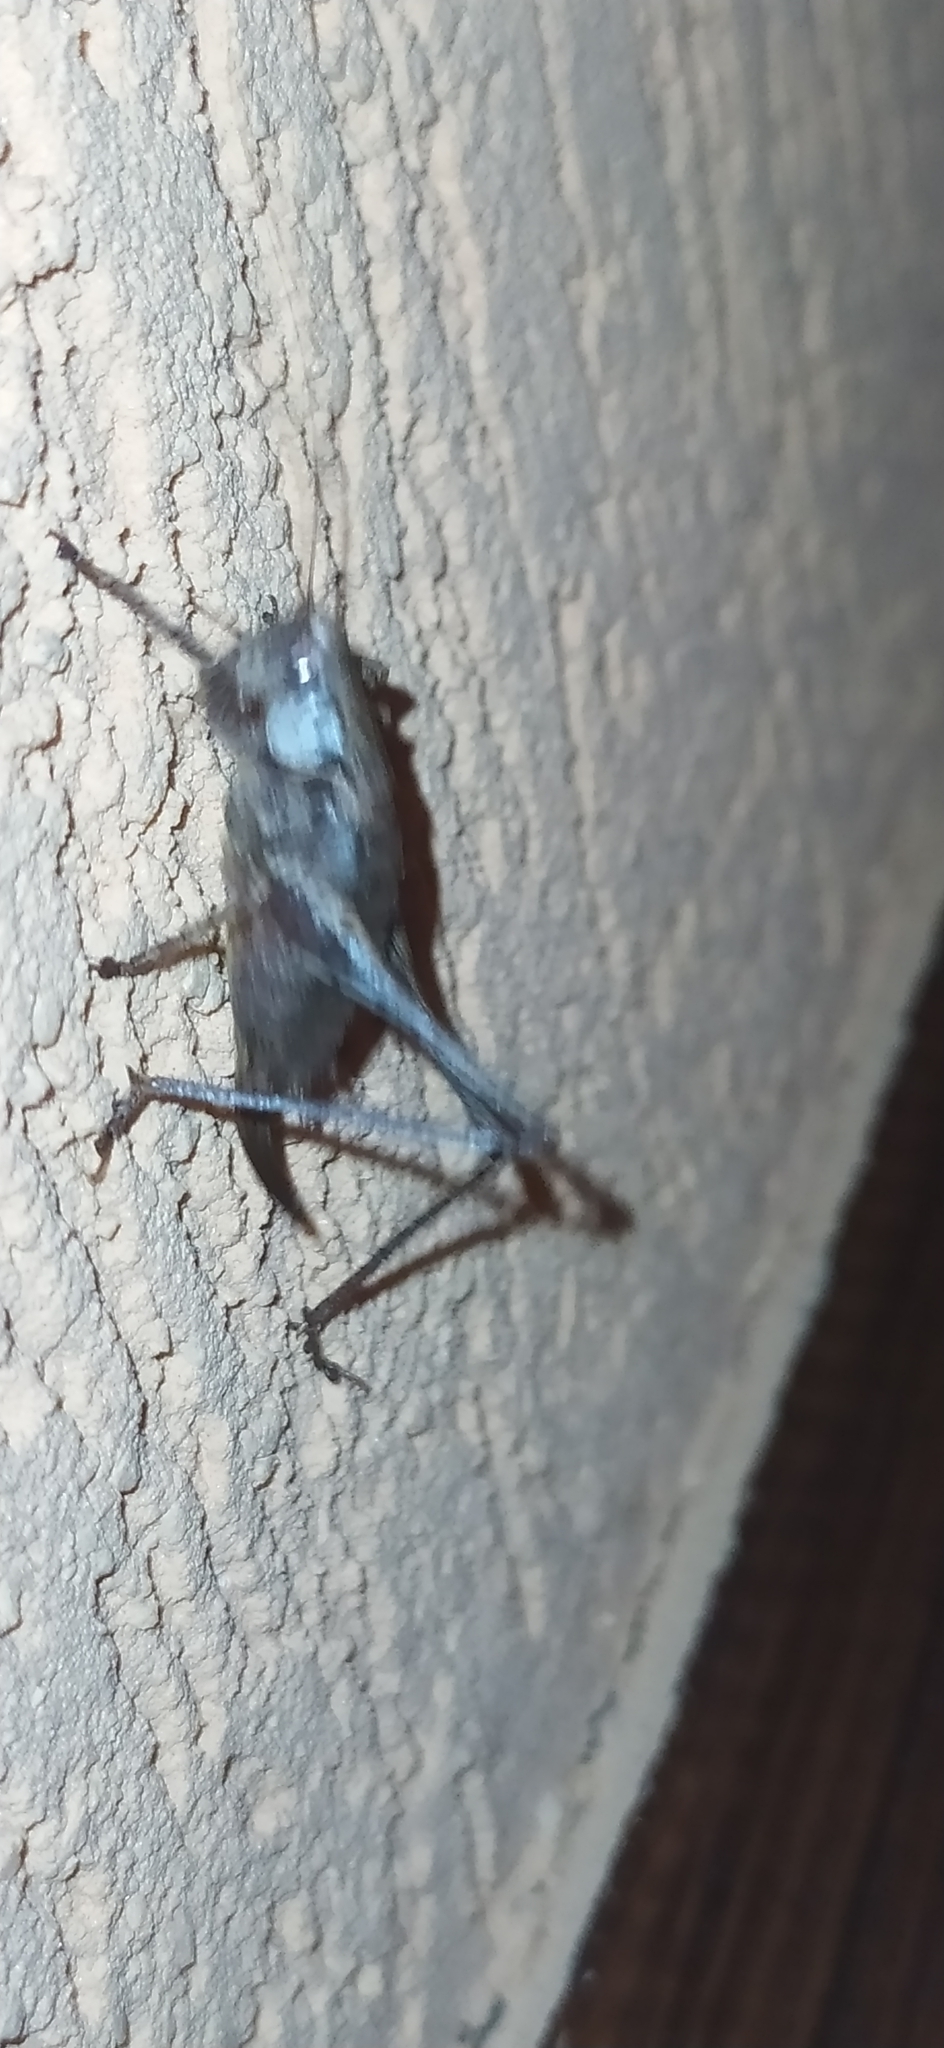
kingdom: Animalia
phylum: Arthropoda
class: Insecta
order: Orthoptera
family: Tettigoniidae
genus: Pholidoptera
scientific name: Pholidoptera griseoaptera
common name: Dark bush-cricket
